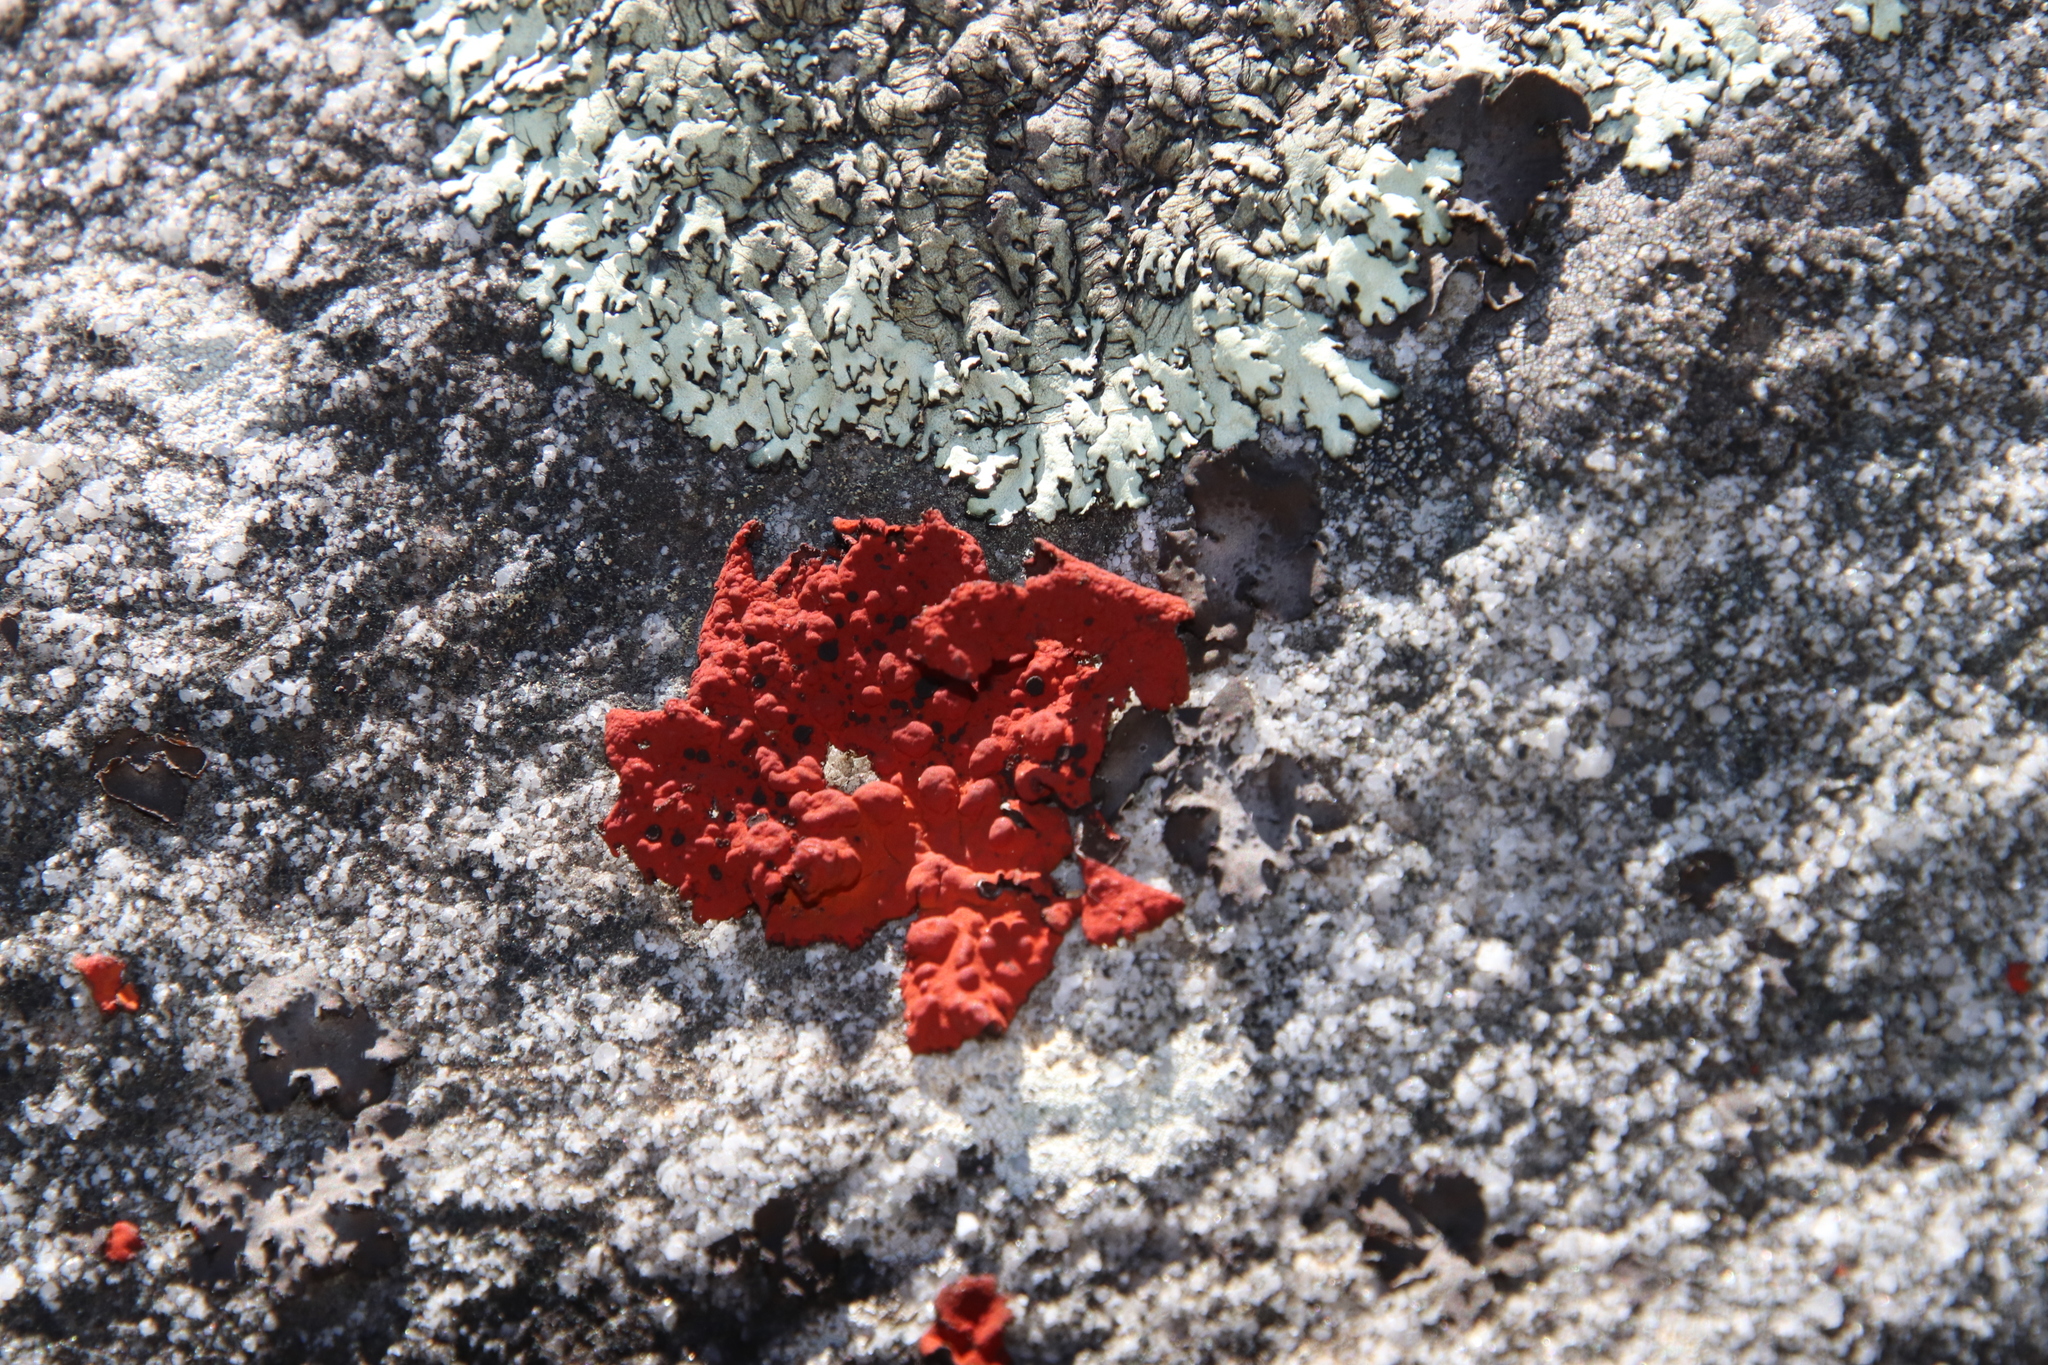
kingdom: Fungi
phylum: Ascomycota
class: Lecanoromycetes
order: Umbilicariales
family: Umbilicariaceae
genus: Lasallia
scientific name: Lasallia rubiginosa
